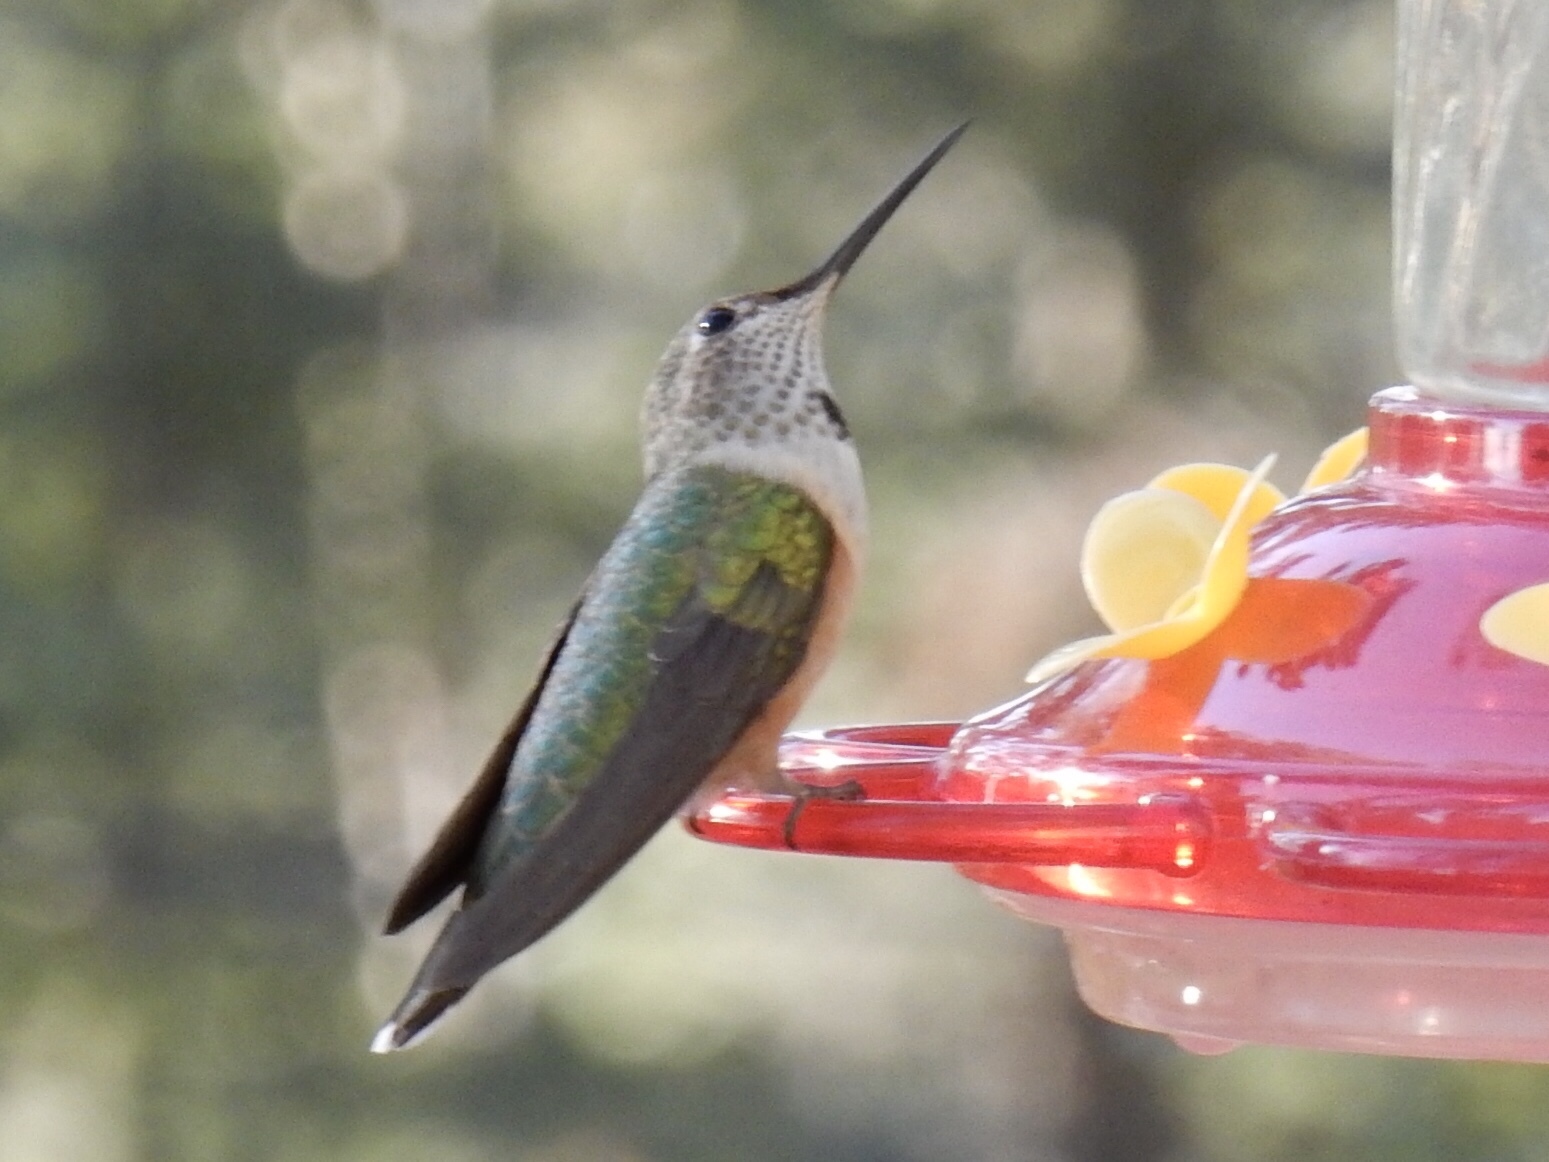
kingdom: Animalia
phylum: Chordata
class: Aves
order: Apodiformes
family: Trochilidae
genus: Selasphorus
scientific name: Selasphorus
